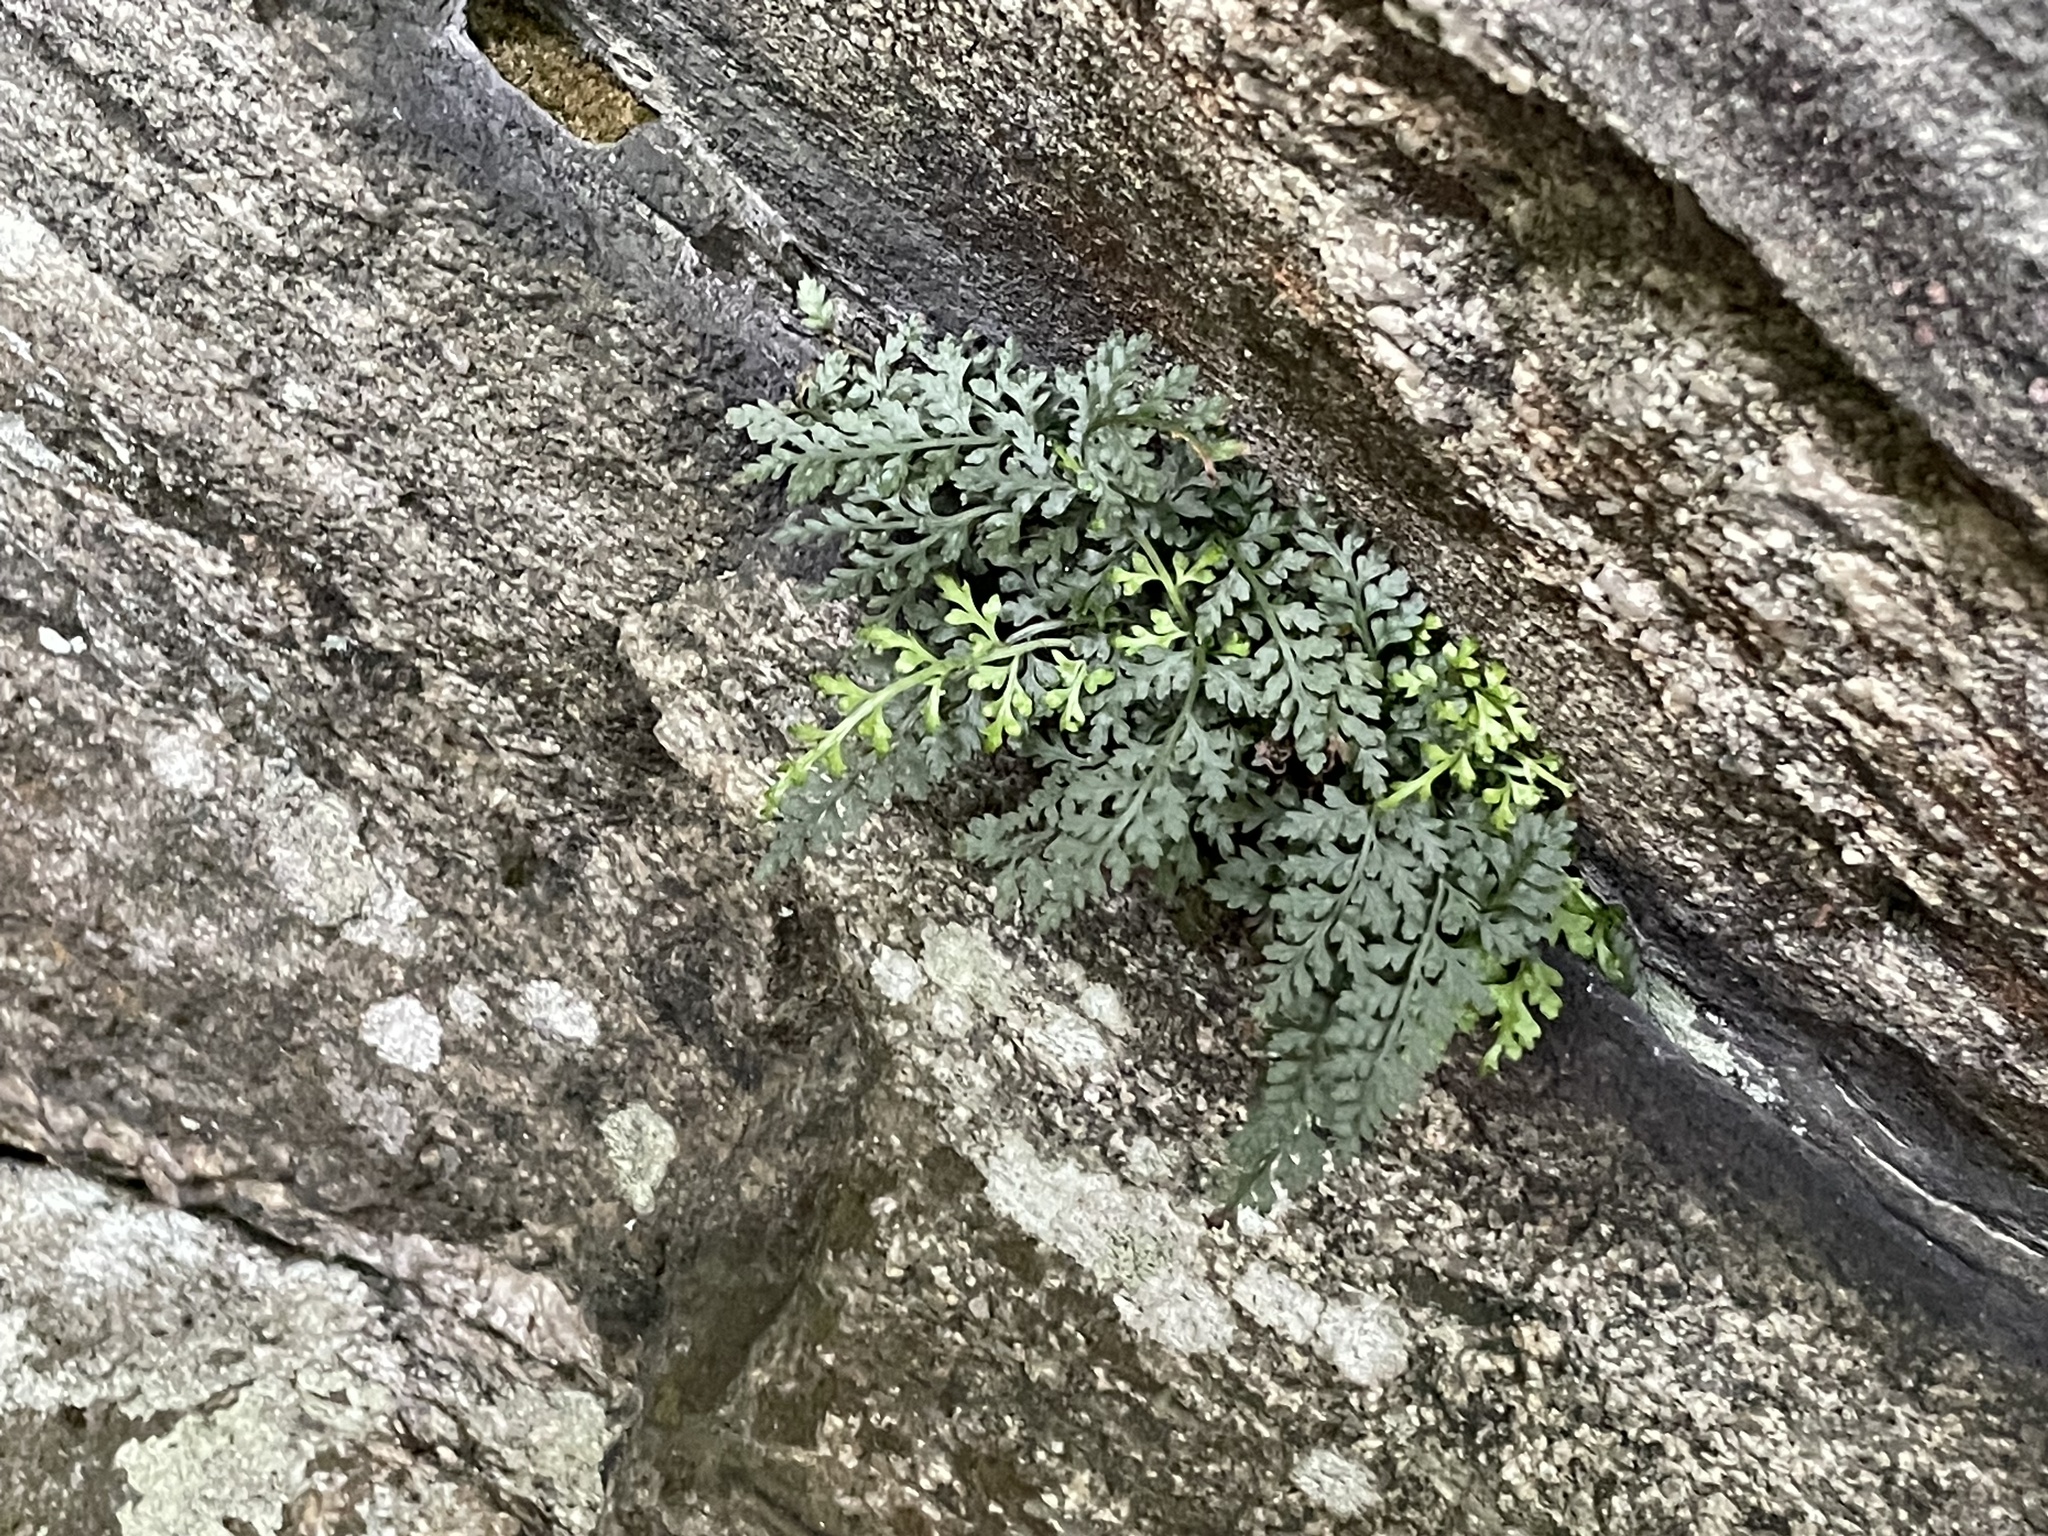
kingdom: Plantae
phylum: Tracheophyta
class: Polypodiopsida
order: Polypodiales
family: Aspleniaceae
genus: Asplenium
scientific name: Asplenium montanum
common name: Mountain spleenwort
